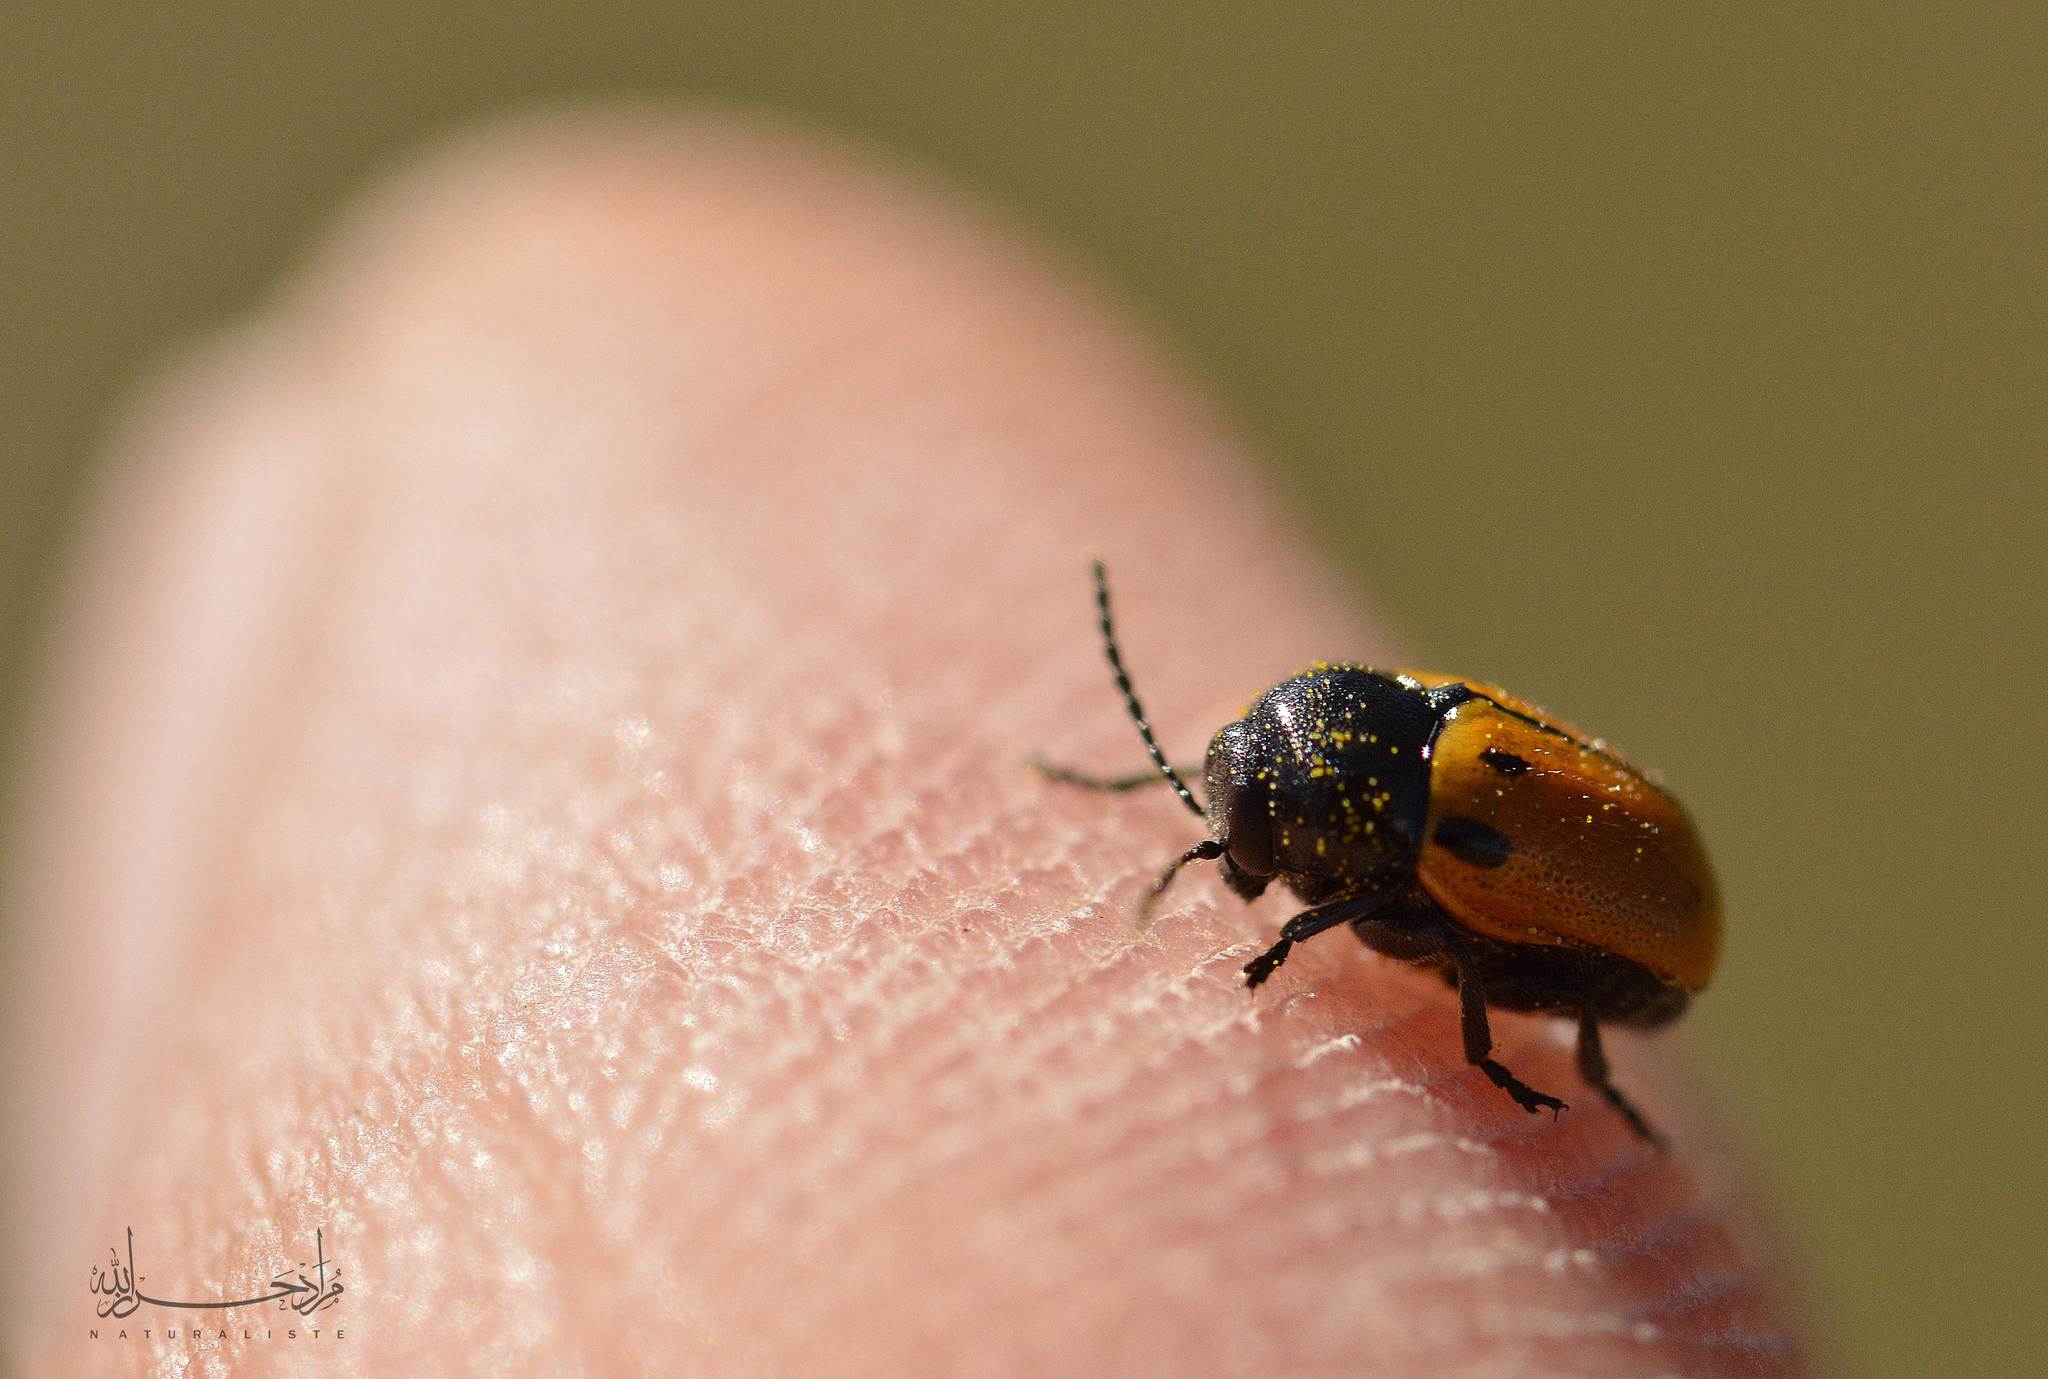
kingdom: Animalia
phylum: Arthropoda
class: Insecta
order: Coleoptera
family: Chrysomelidae
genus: Cryptocephalus
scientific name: Cryptocephalus rugicollis
